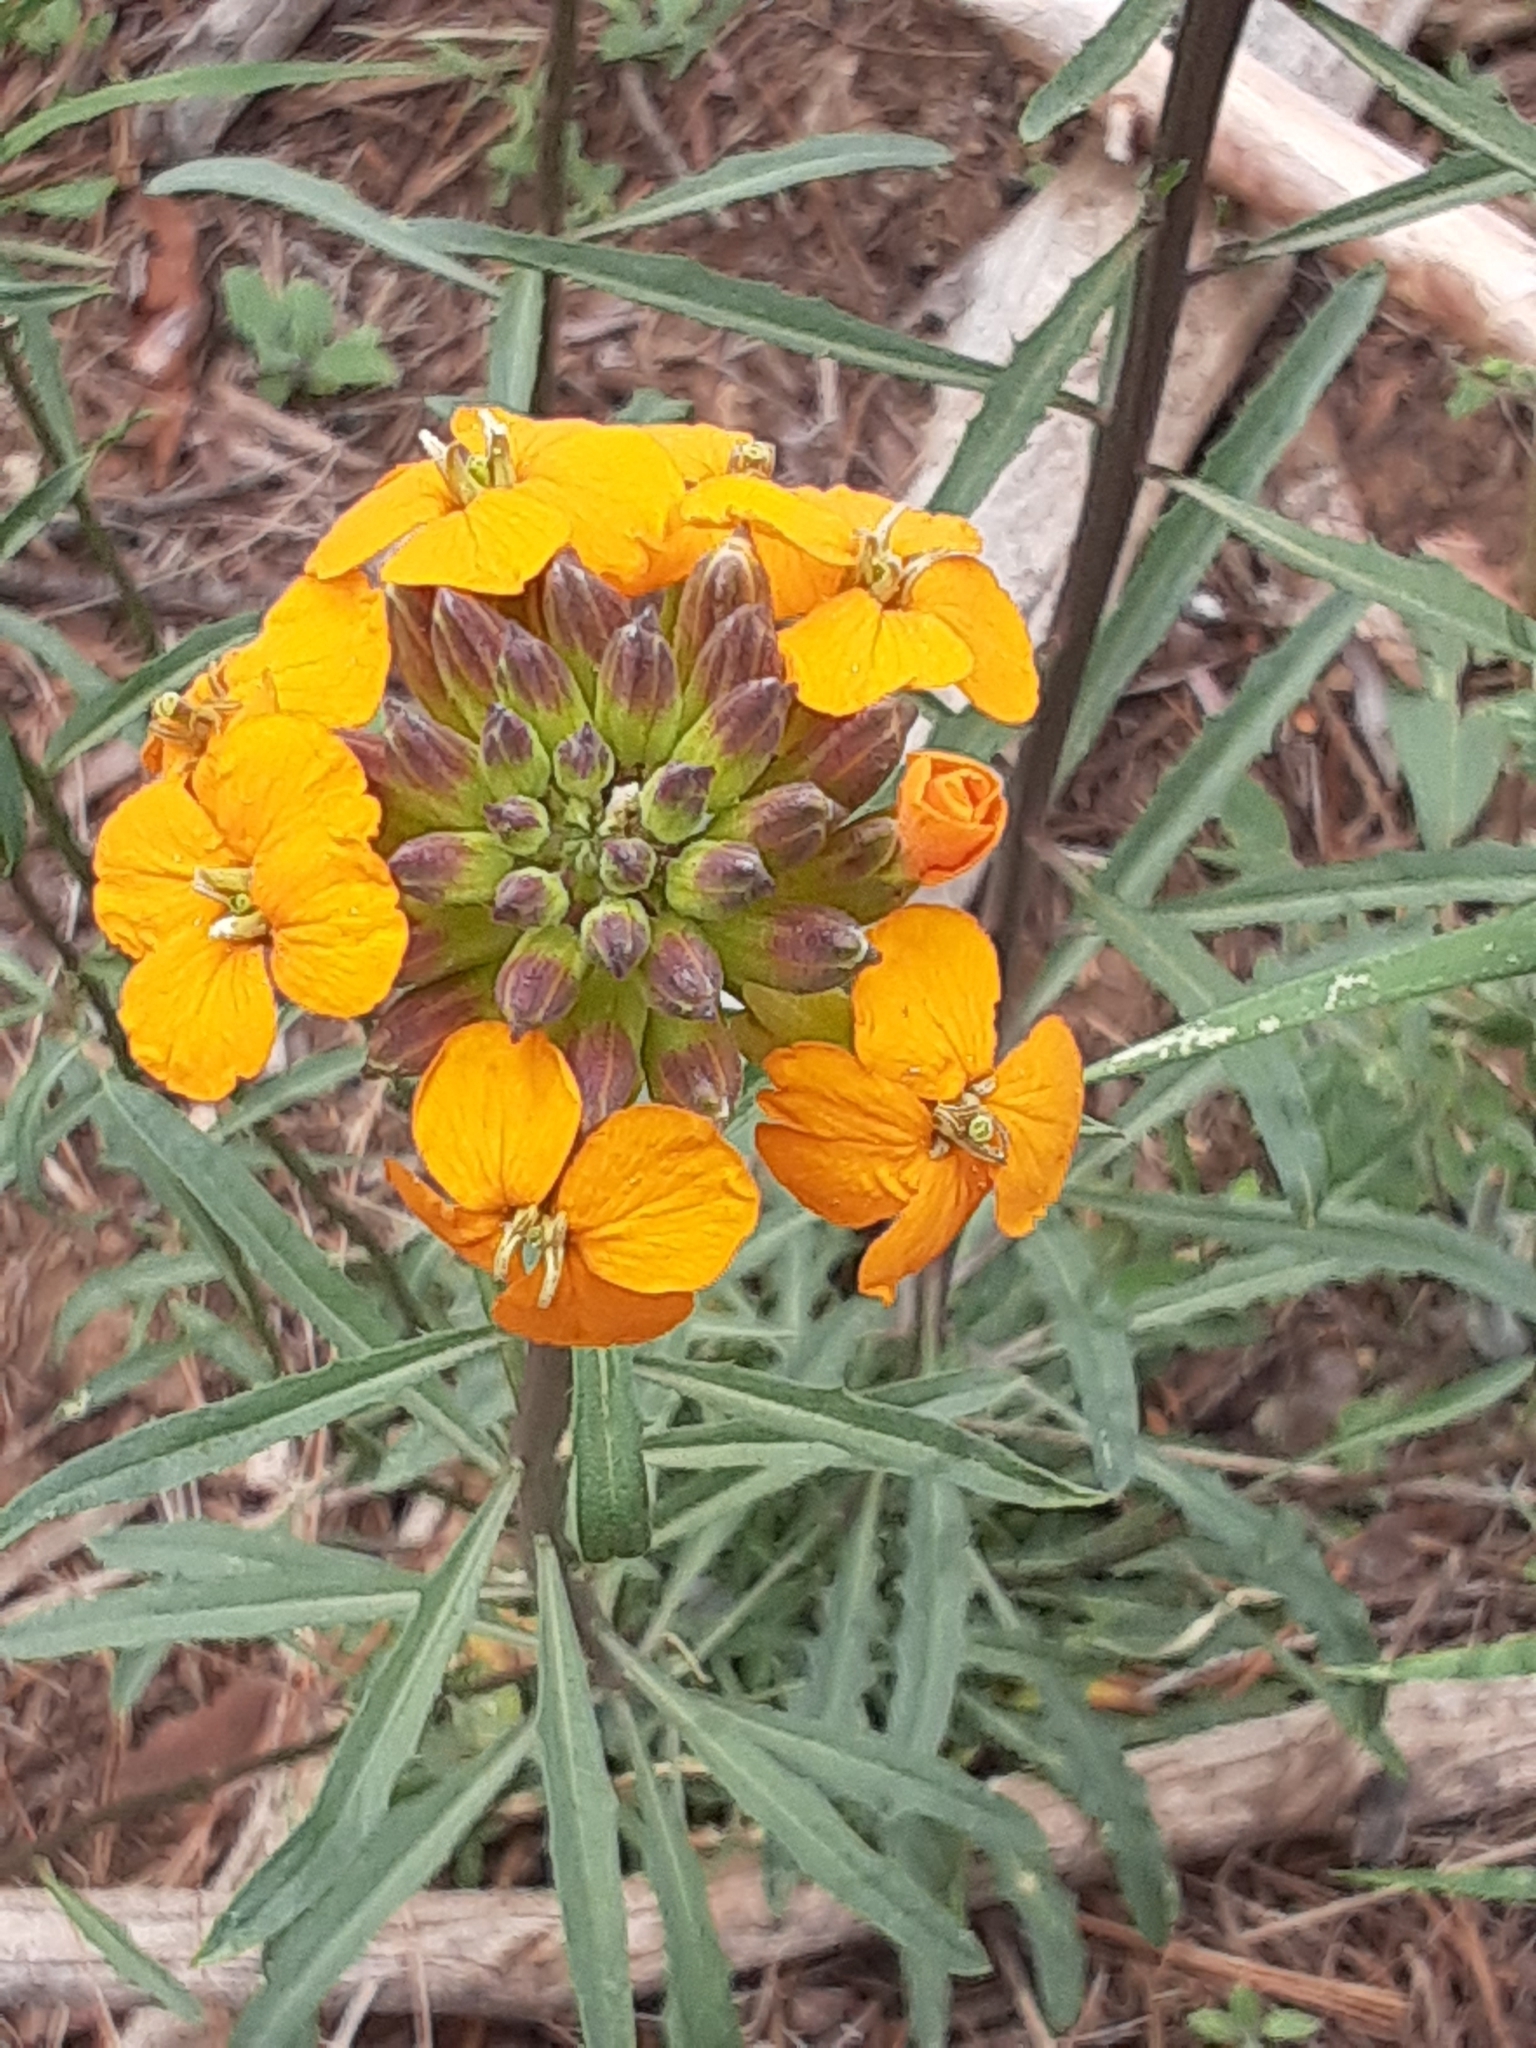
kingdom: Plantae
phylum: Tracheophyta
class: Magnoliopsida
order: Brassicales
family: Brassicaceae
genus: Erysimum
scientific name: Erysimum capitatum
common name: Western wallflower
